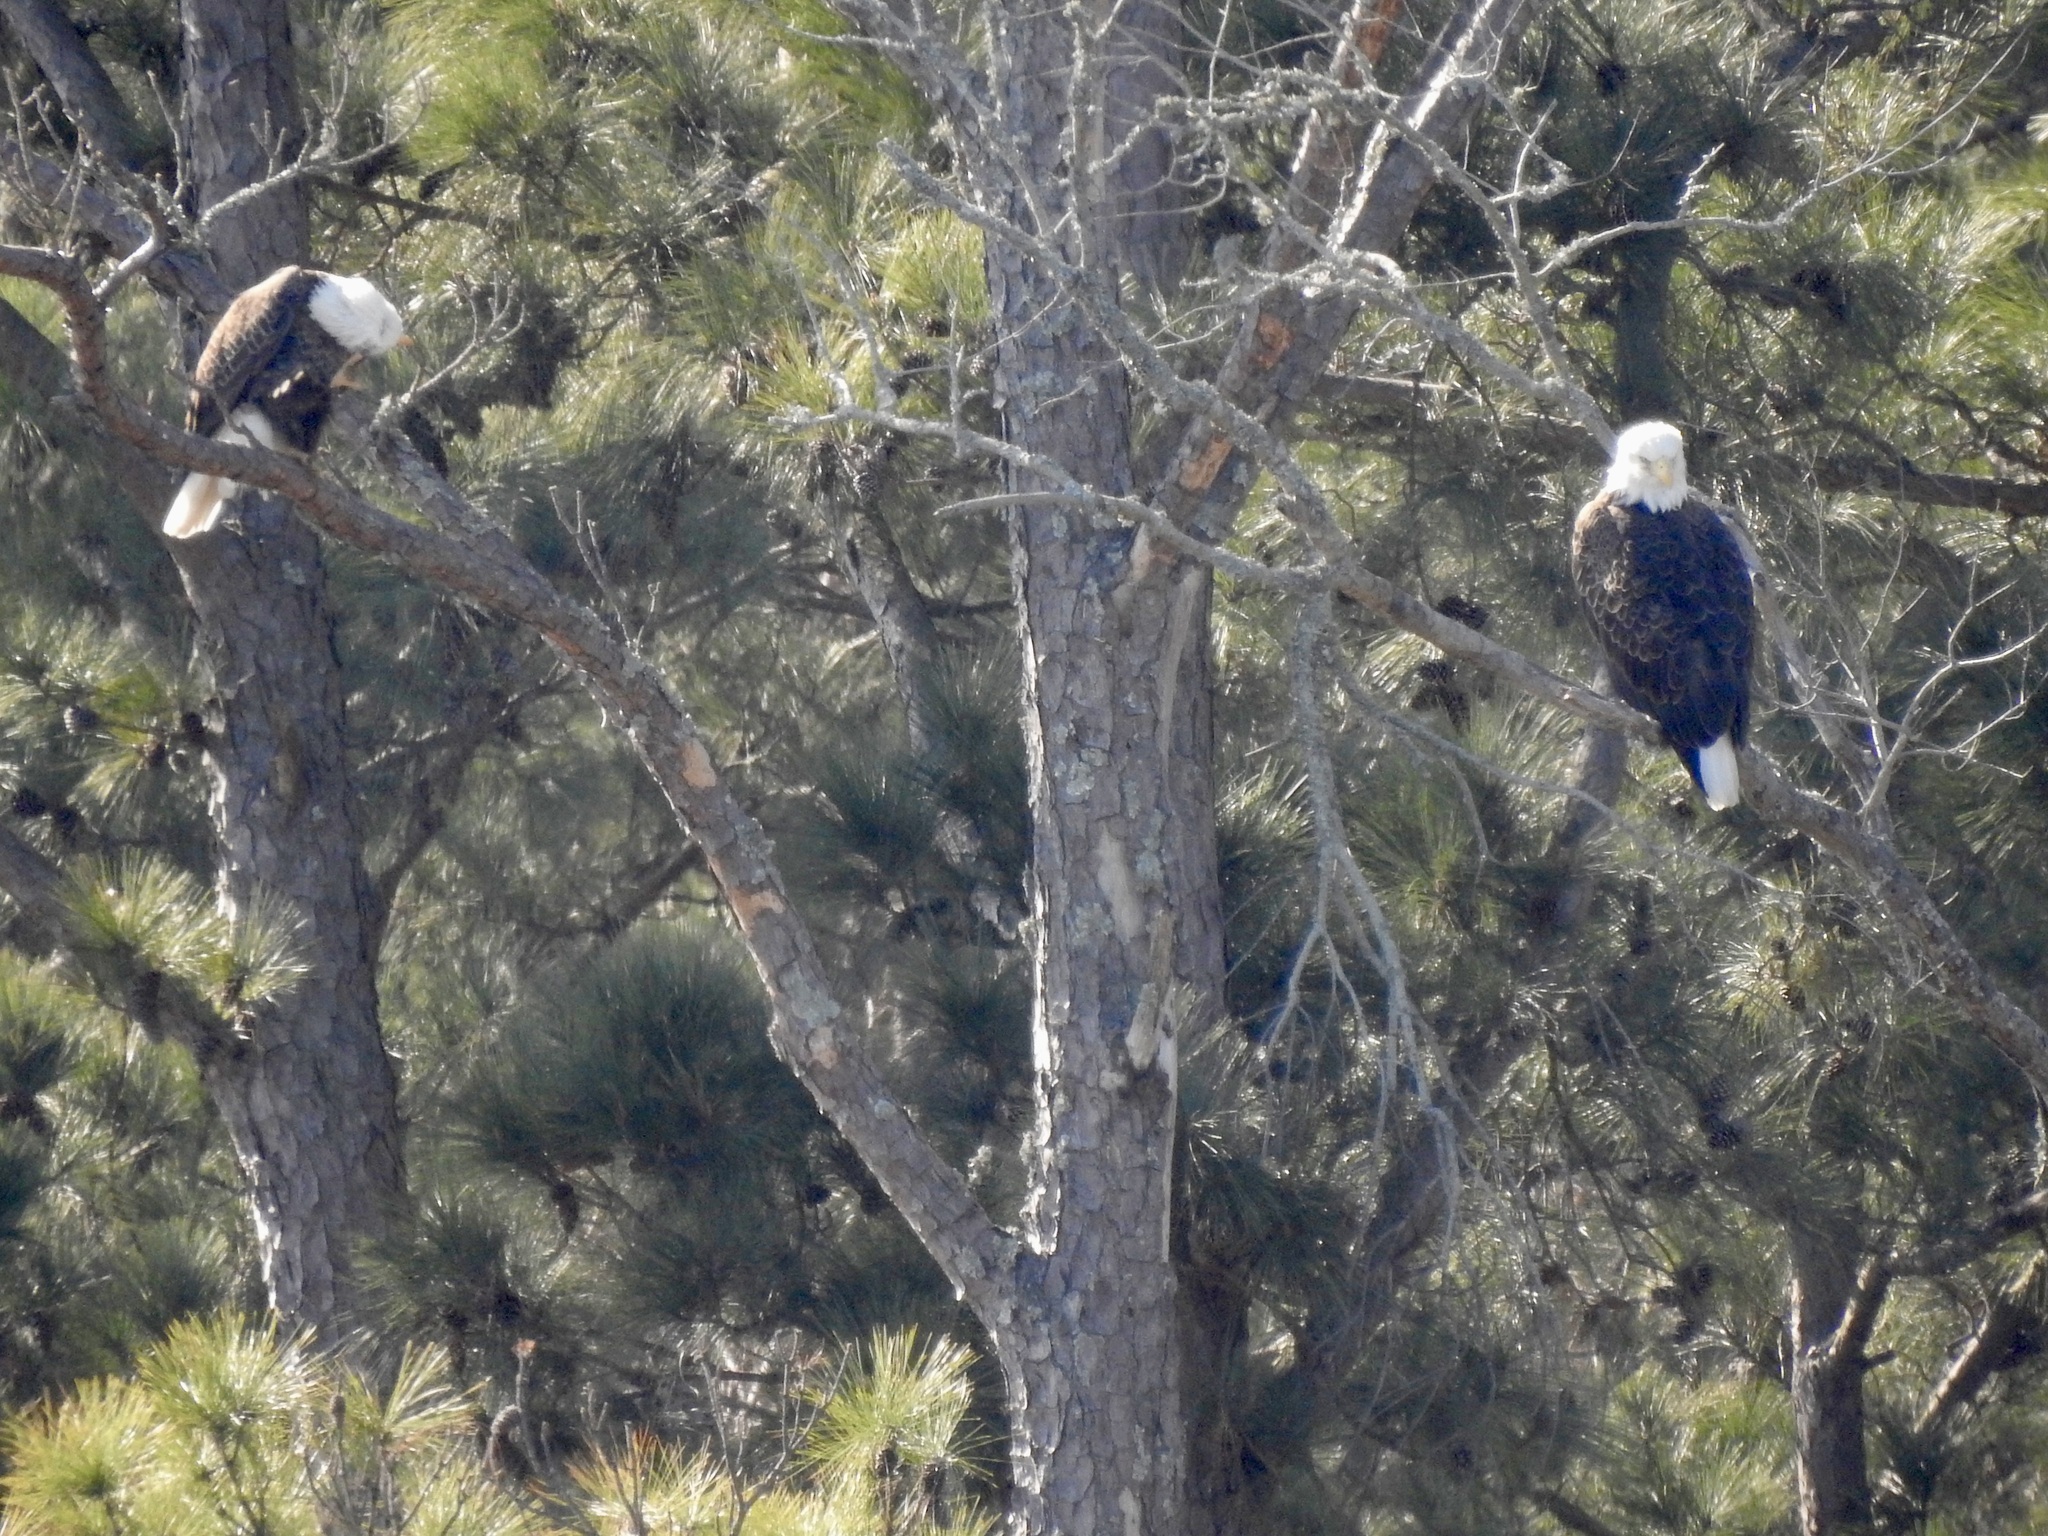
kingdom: Animalia
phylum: Chordata
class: Aves
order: Accipitriformes
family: Accipitridae
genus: Haliaeetus
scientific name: Haliaeetus leucocephalus
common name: Bald eagle
